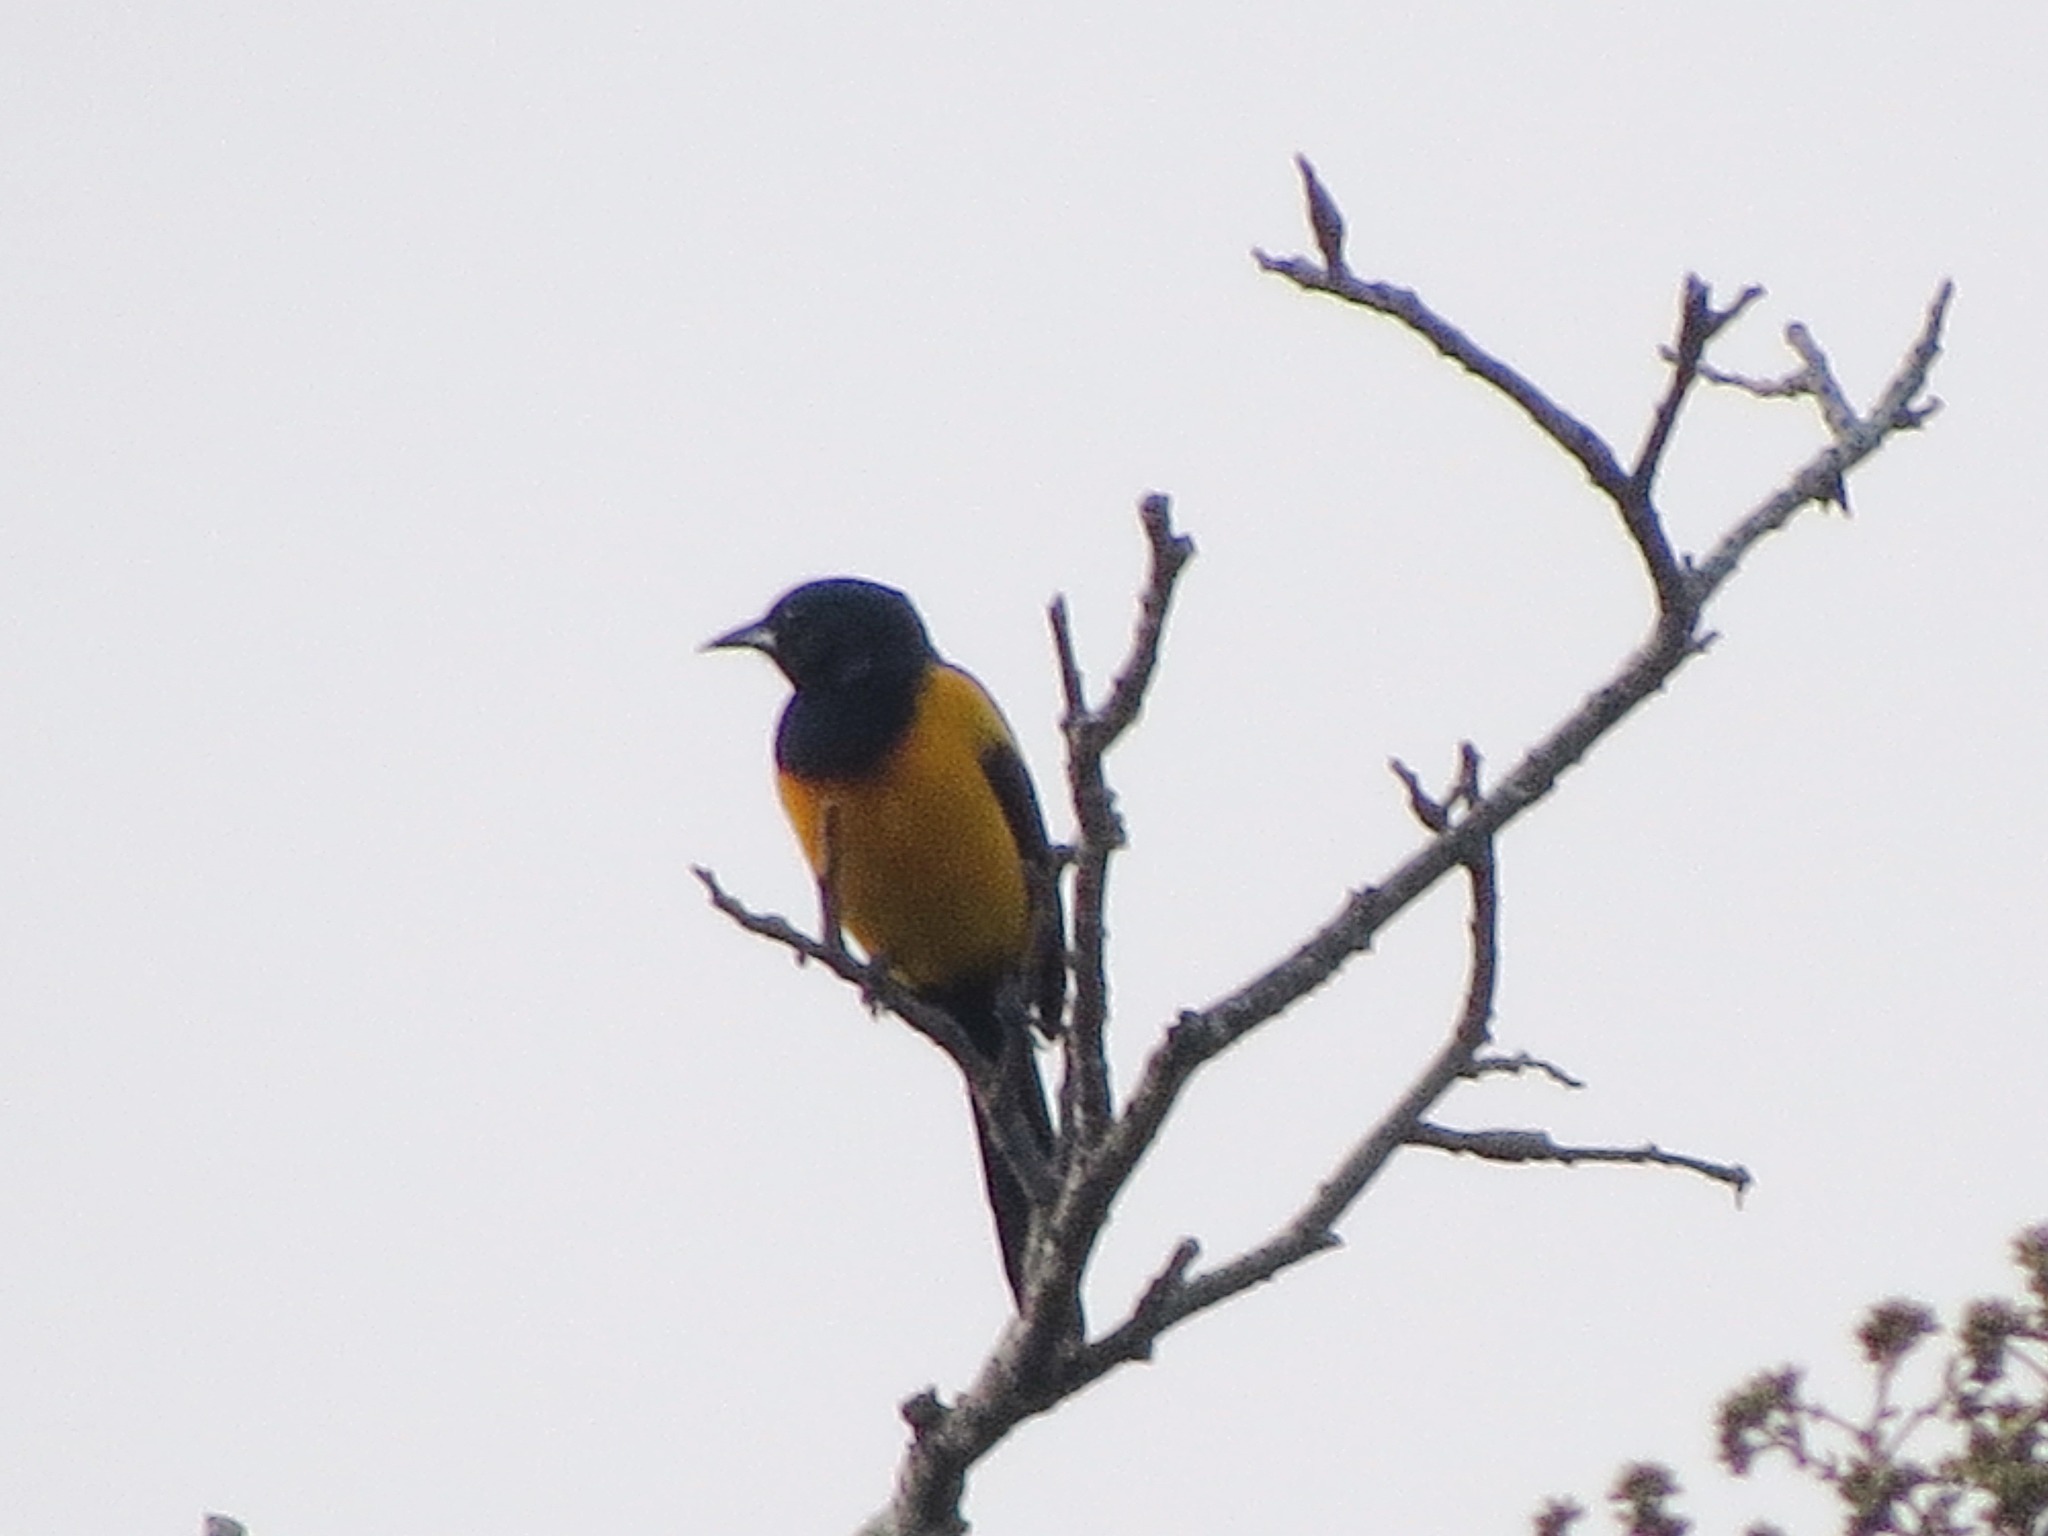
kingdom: Animalia
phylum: Chordata
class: Aves
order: Passeriformes
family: Icteridae
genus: Icterus
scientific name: Icterus wagleri
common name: Black-vented oriole
